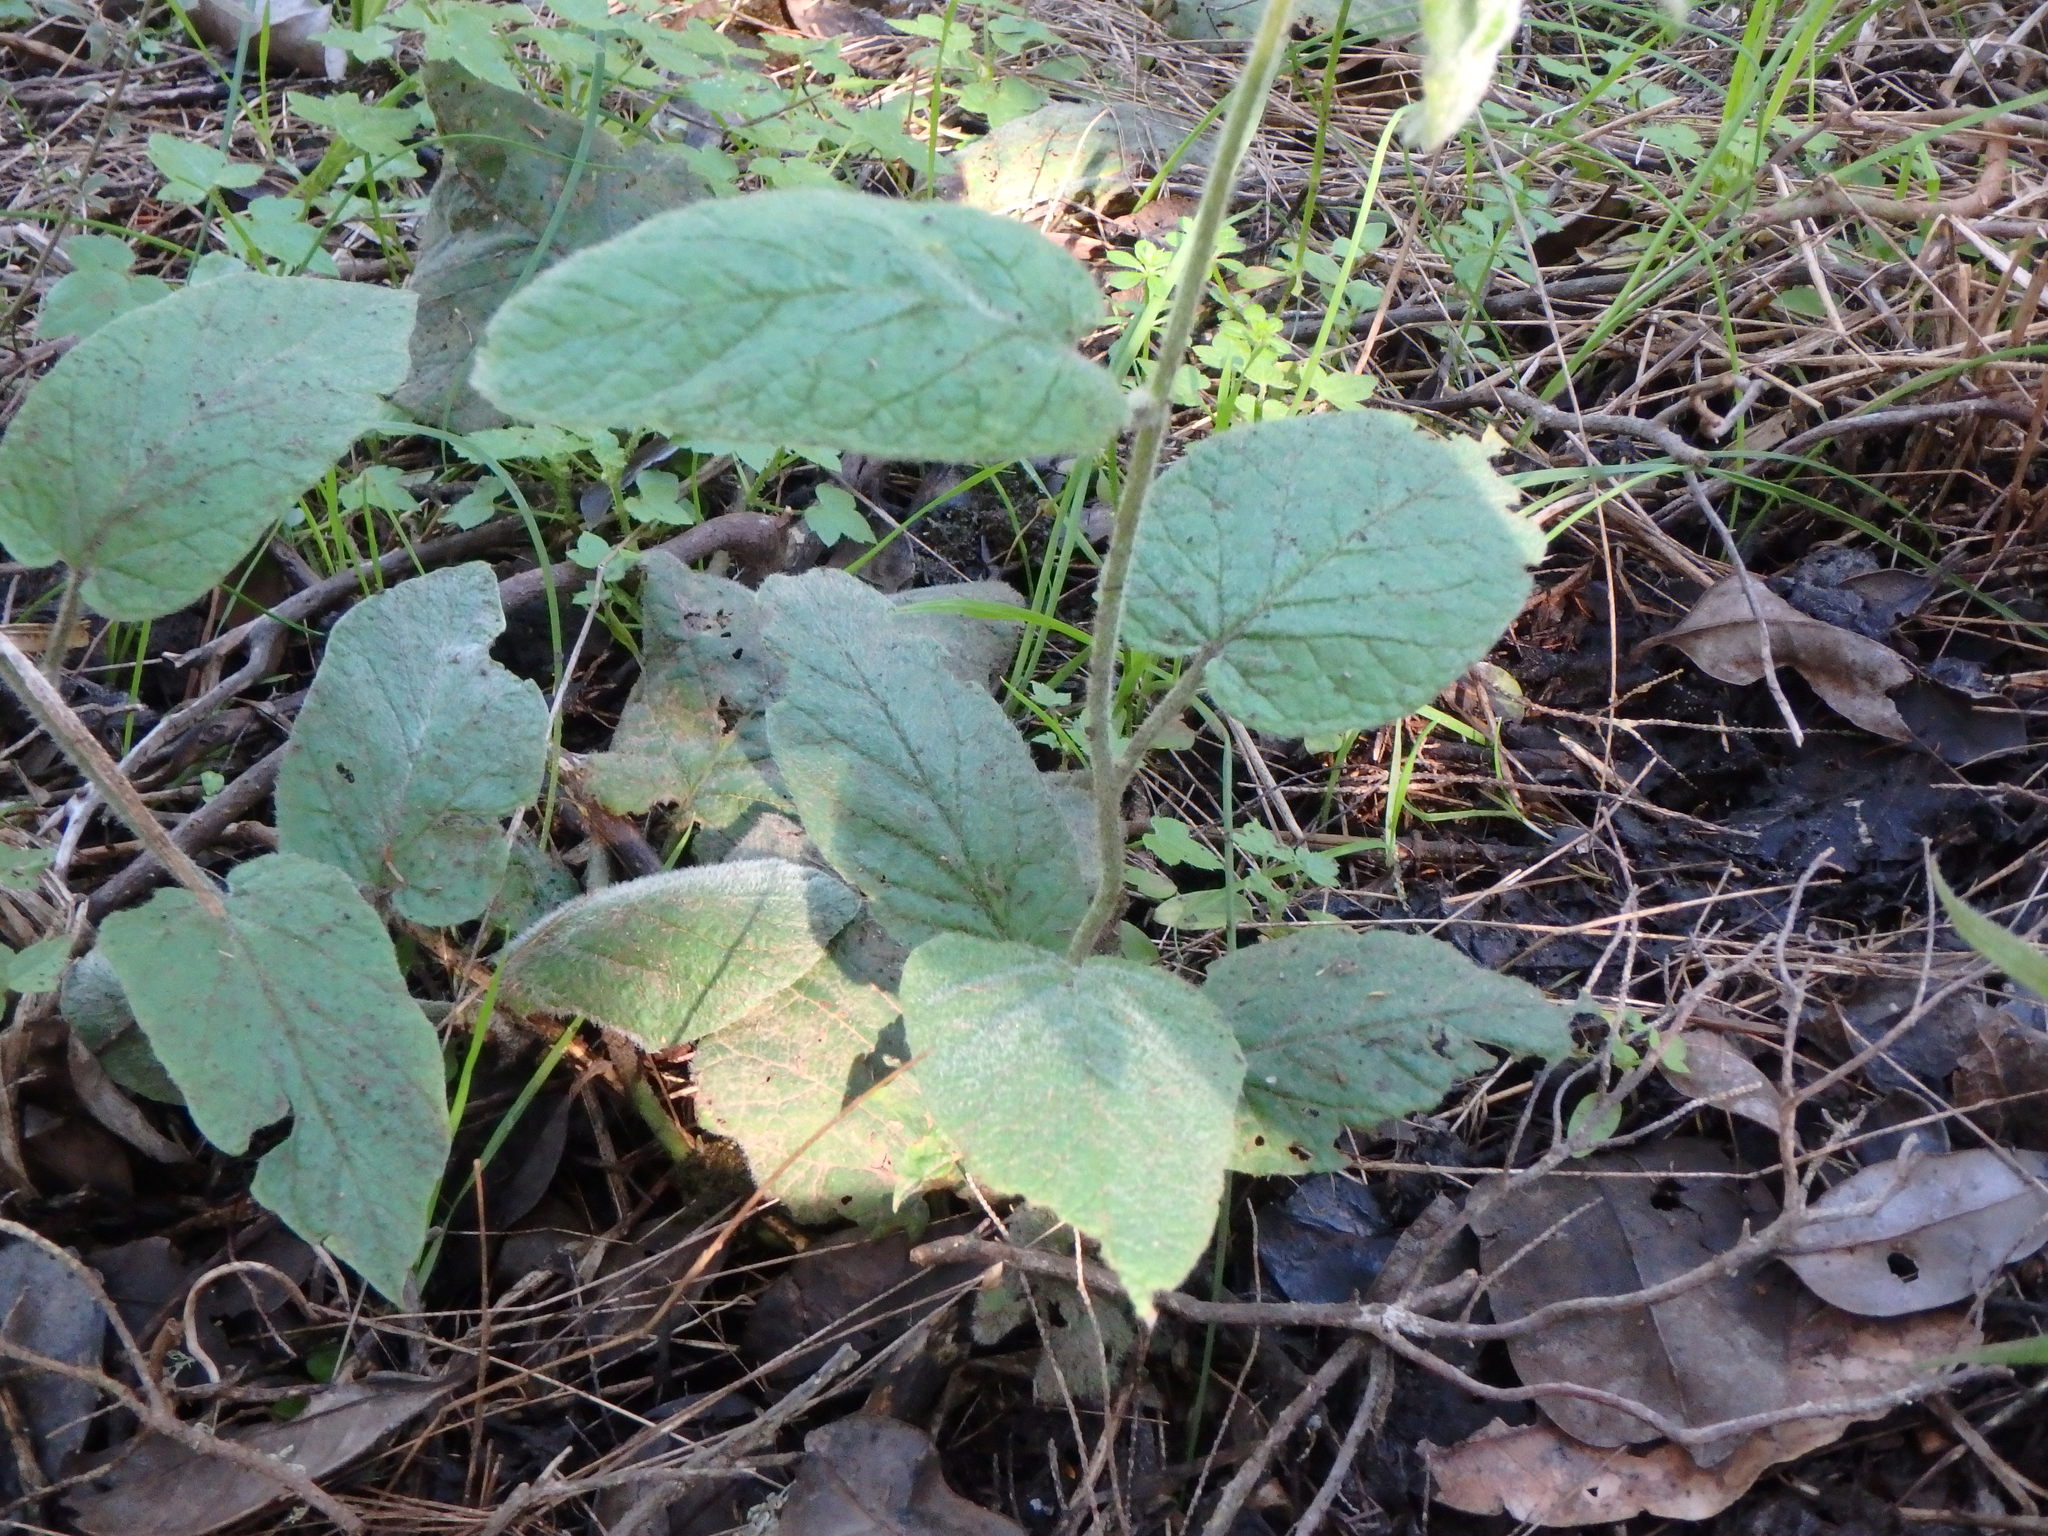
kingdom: Plantae
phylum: Tracheophyta
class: Magnoliopsida
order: Solanales
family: Convolvulaceae
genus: Convolvulus
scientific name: Convolvulus canariensis
